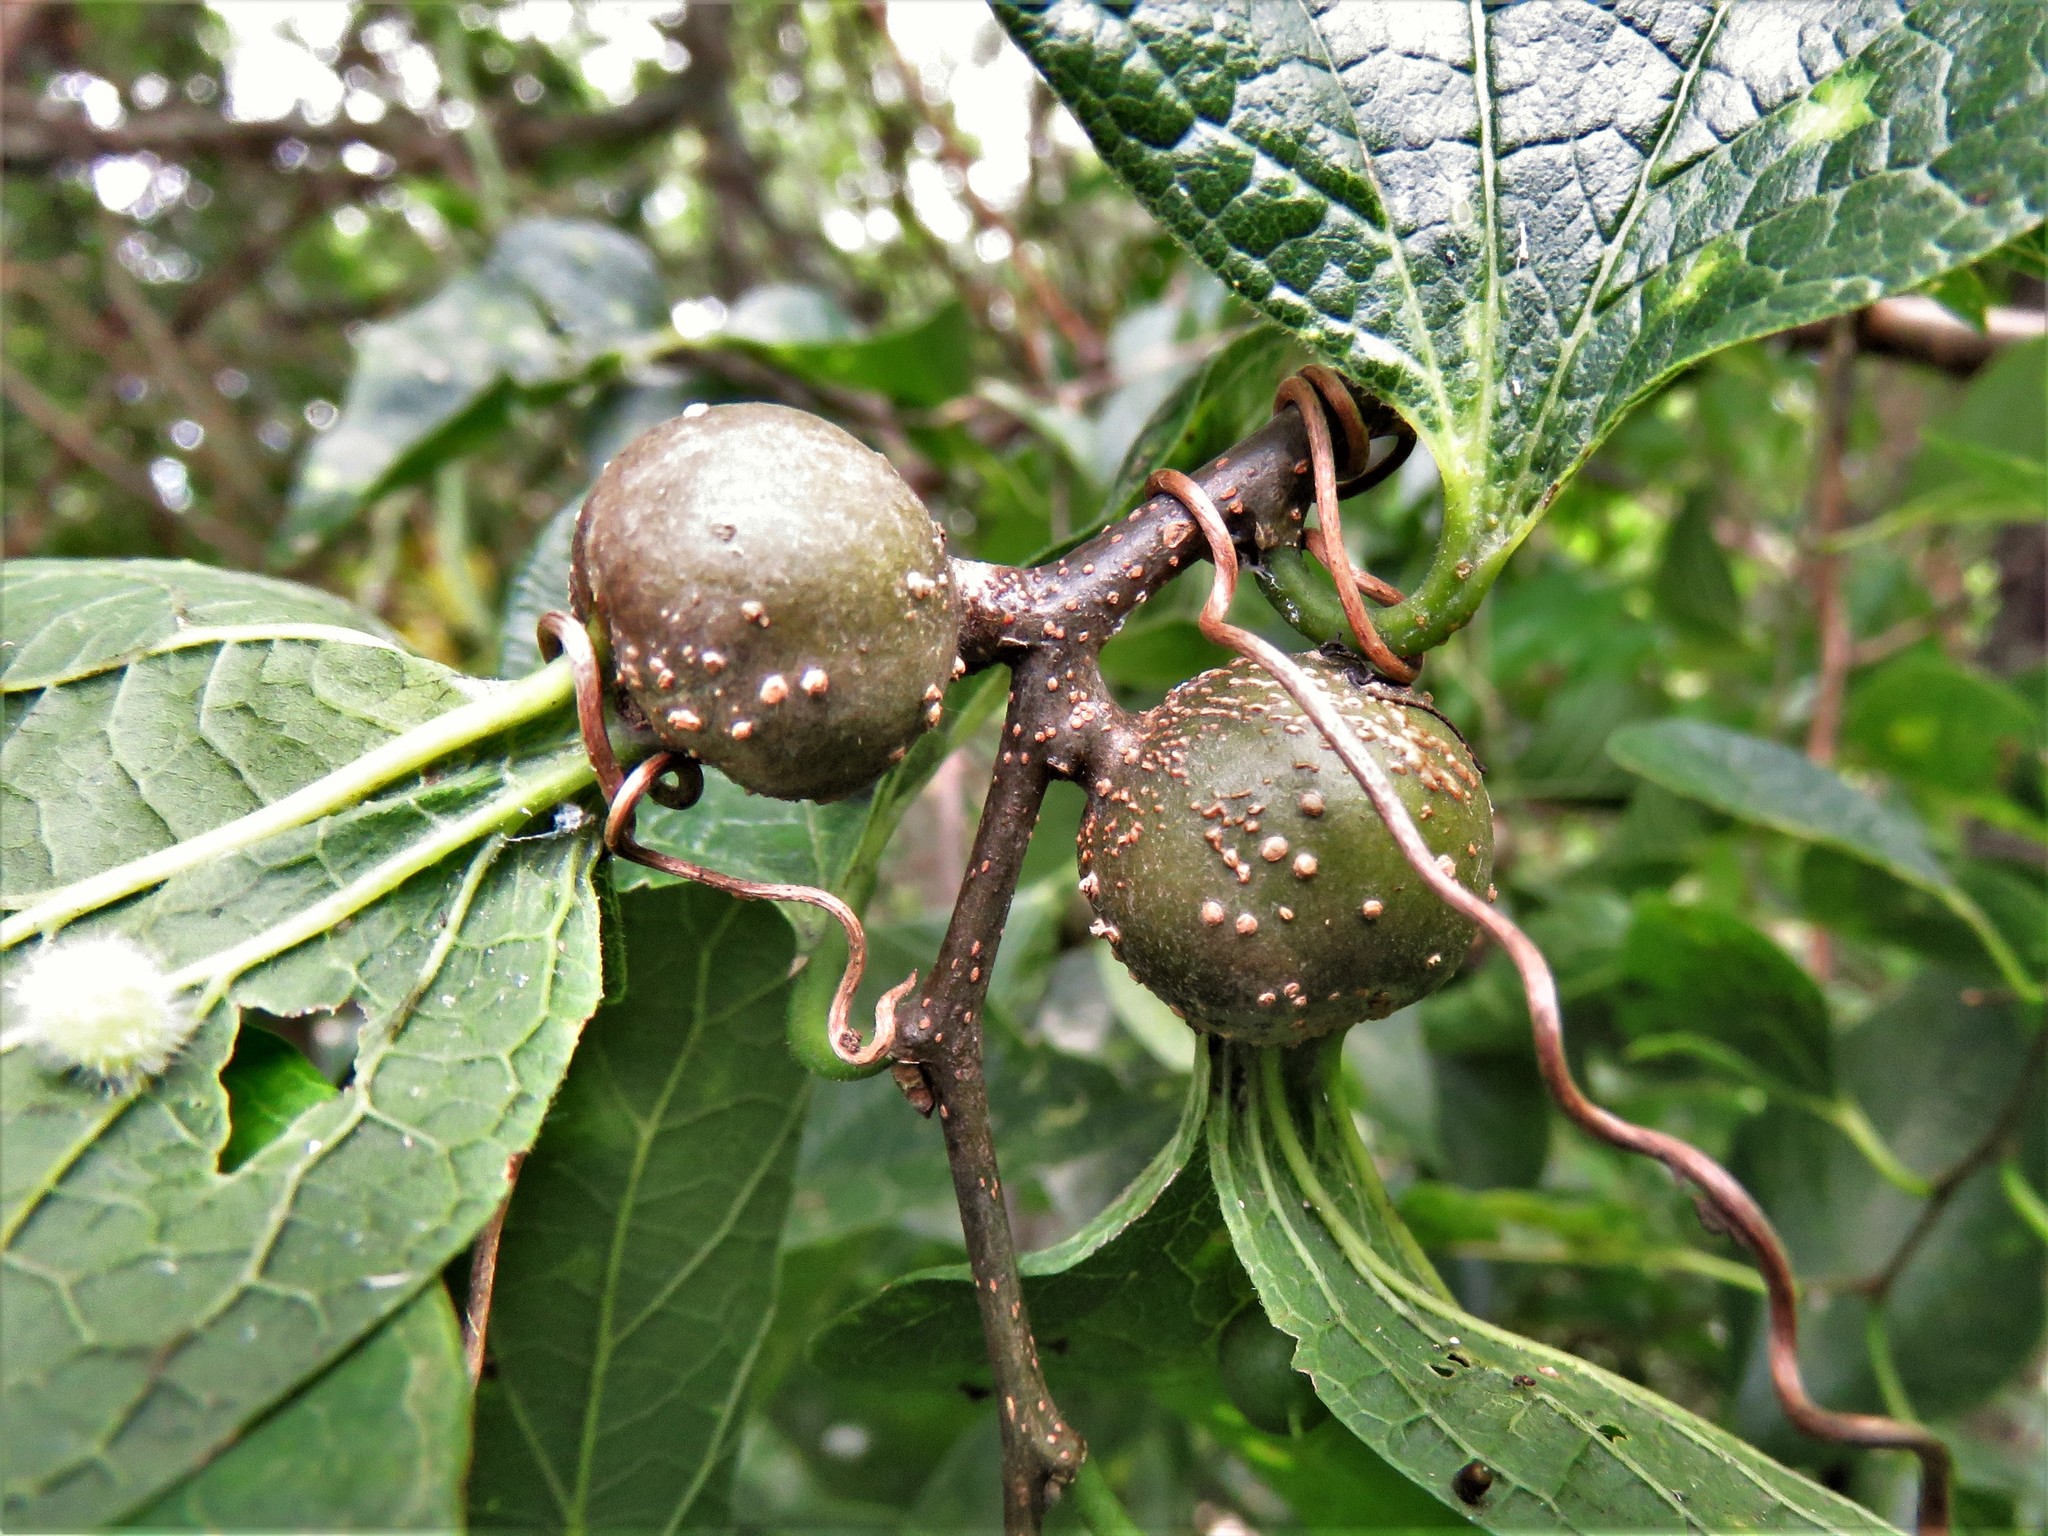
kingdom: Animalia
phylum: Arthropoda
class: Insecta
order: Hemiptera
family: Aphalaridae
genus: Pachypsylla
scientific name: Pachypsylla venusta
